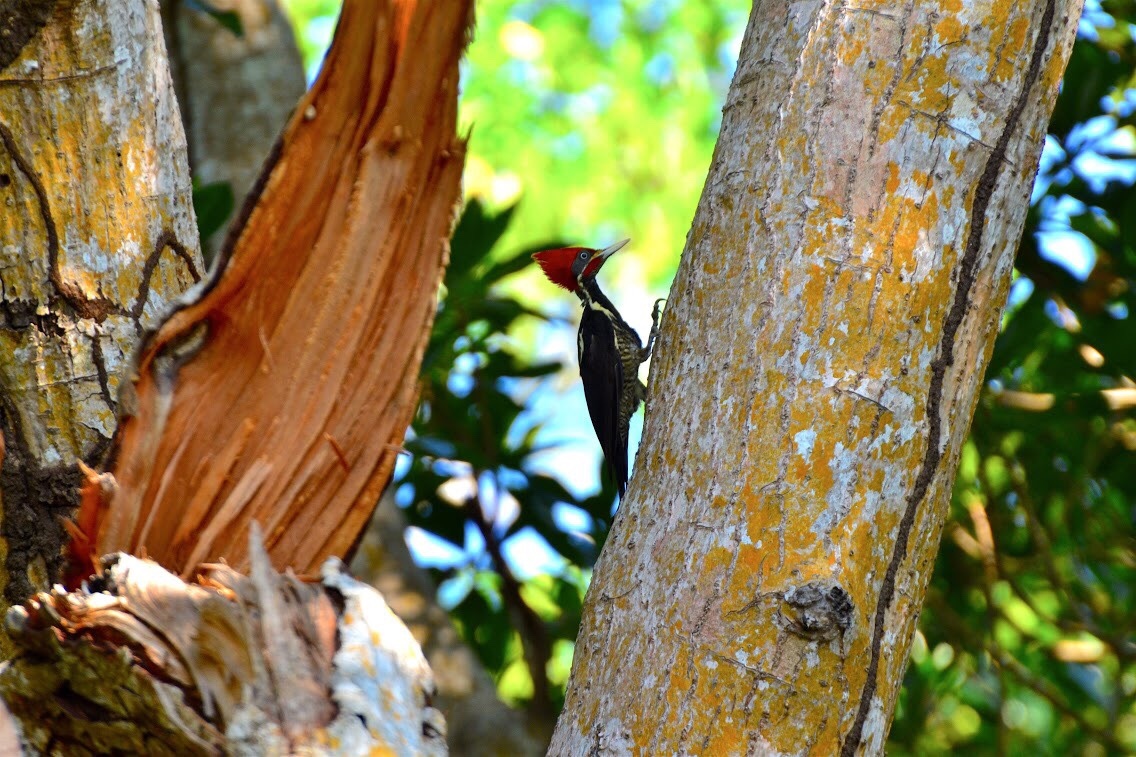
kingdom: Animalia
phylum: Chordata
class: Aves
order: Piciformes
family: Picidae
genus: Dryocopus
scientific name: Dryocopus lineatus
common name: Lineated woodpecker
